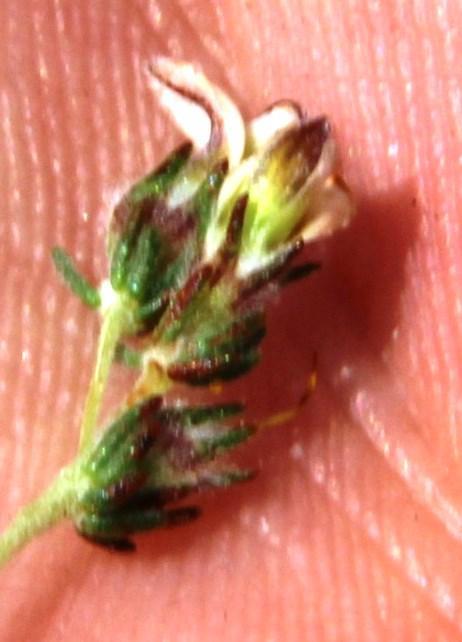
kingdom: Plantae
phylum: Tracheophyta
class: Magnoliopsida
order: Fabales
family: Fabaceae
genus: Aspalathus
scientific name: Aspalathus hispida
